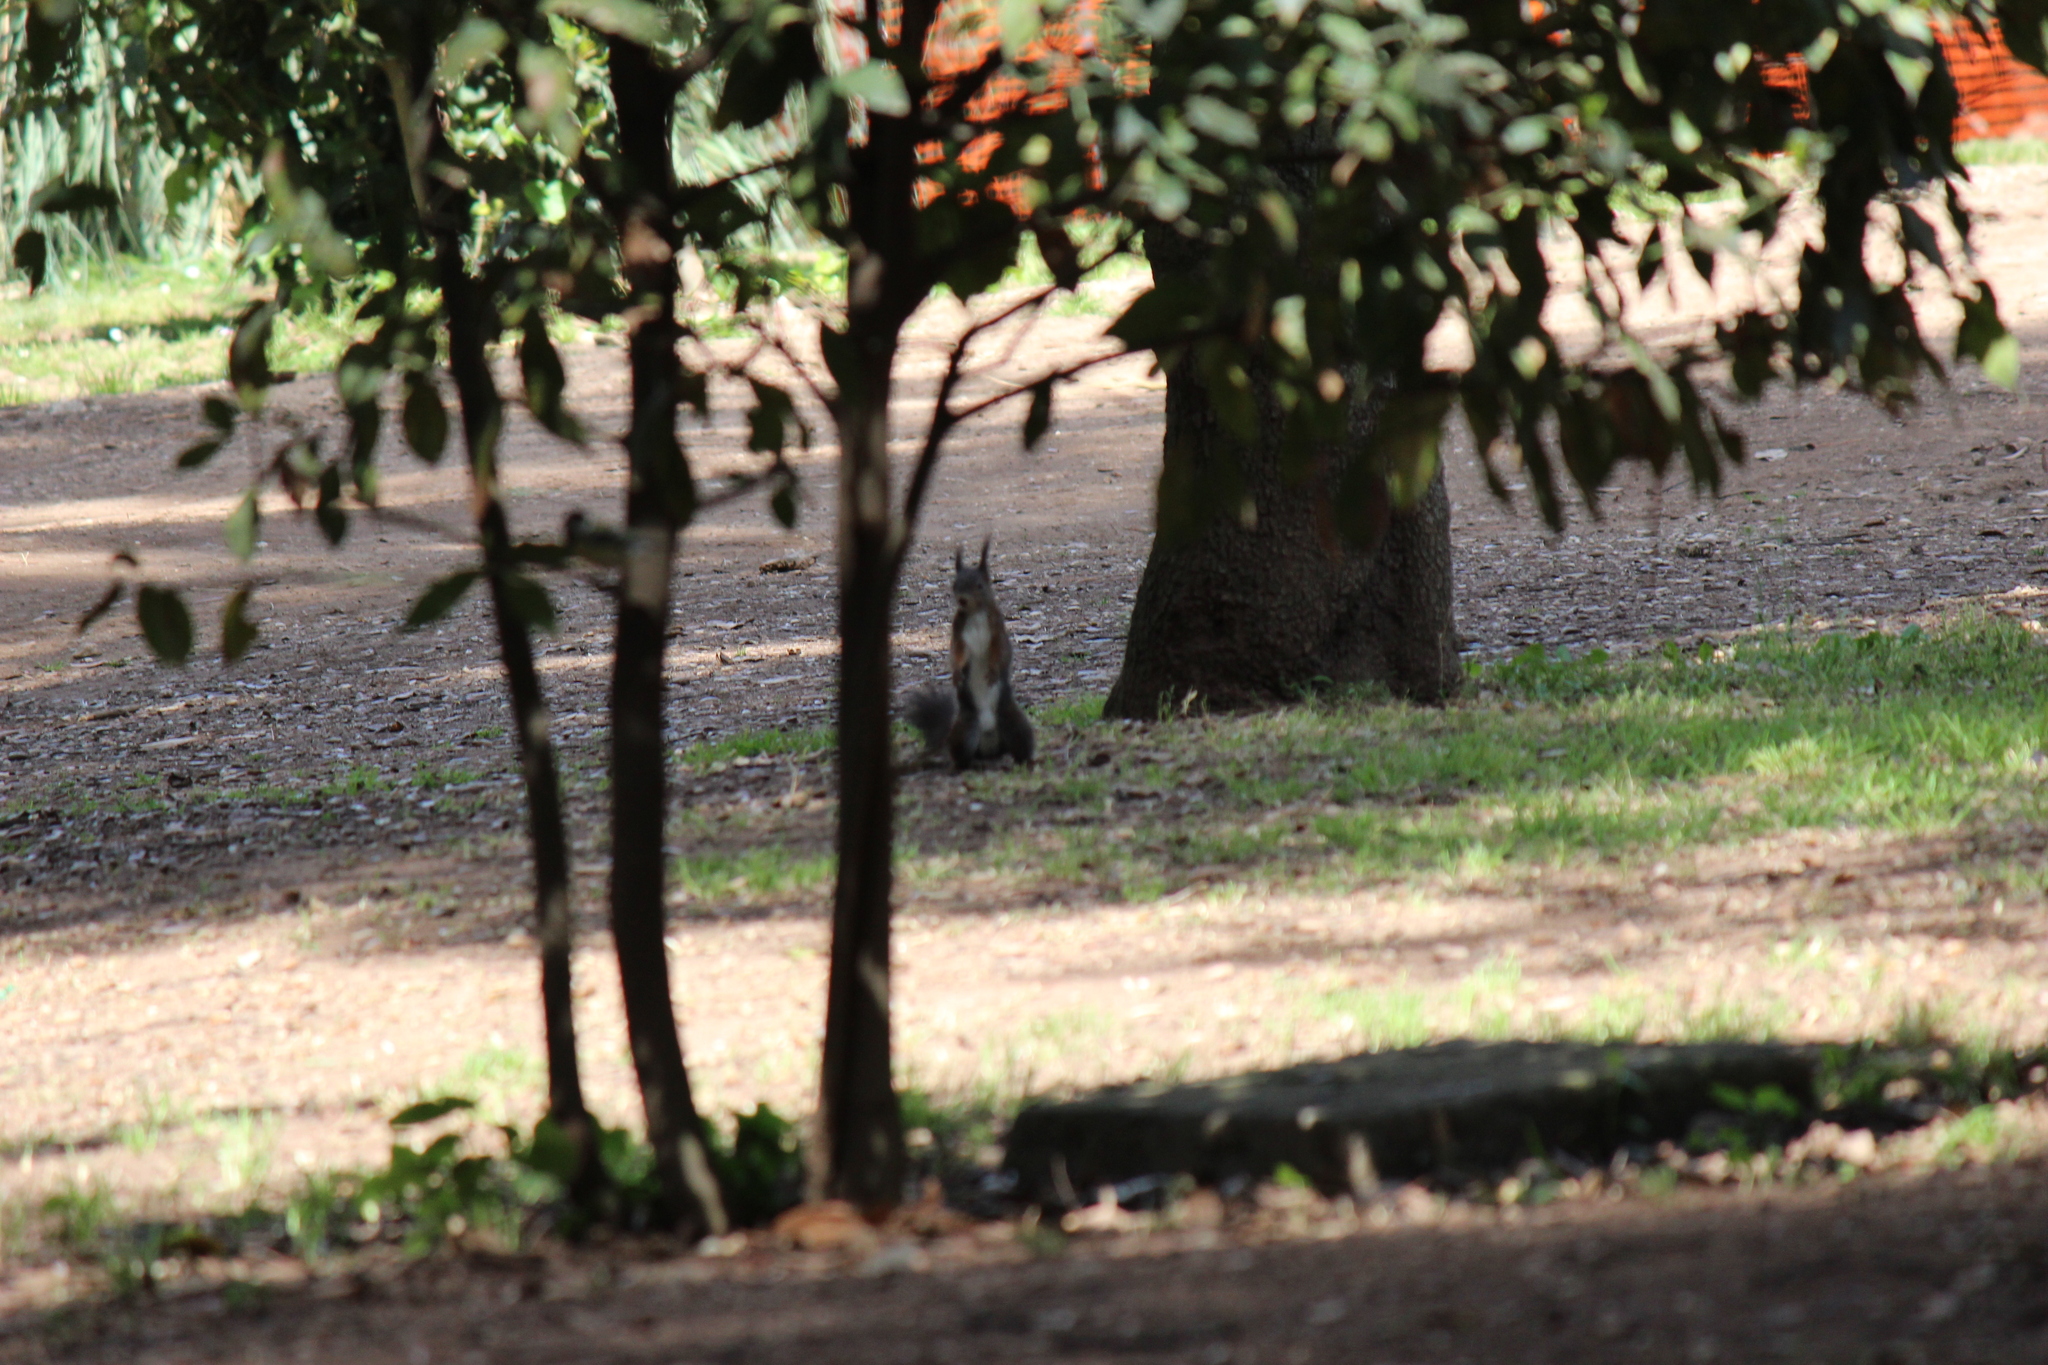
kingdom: Animalia
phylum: Chordata
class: Mammalia
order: Rodentia
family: Sciuridae
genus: Sciurus
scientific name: Sciurus vulgaris
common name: Eurasian red squirrel
